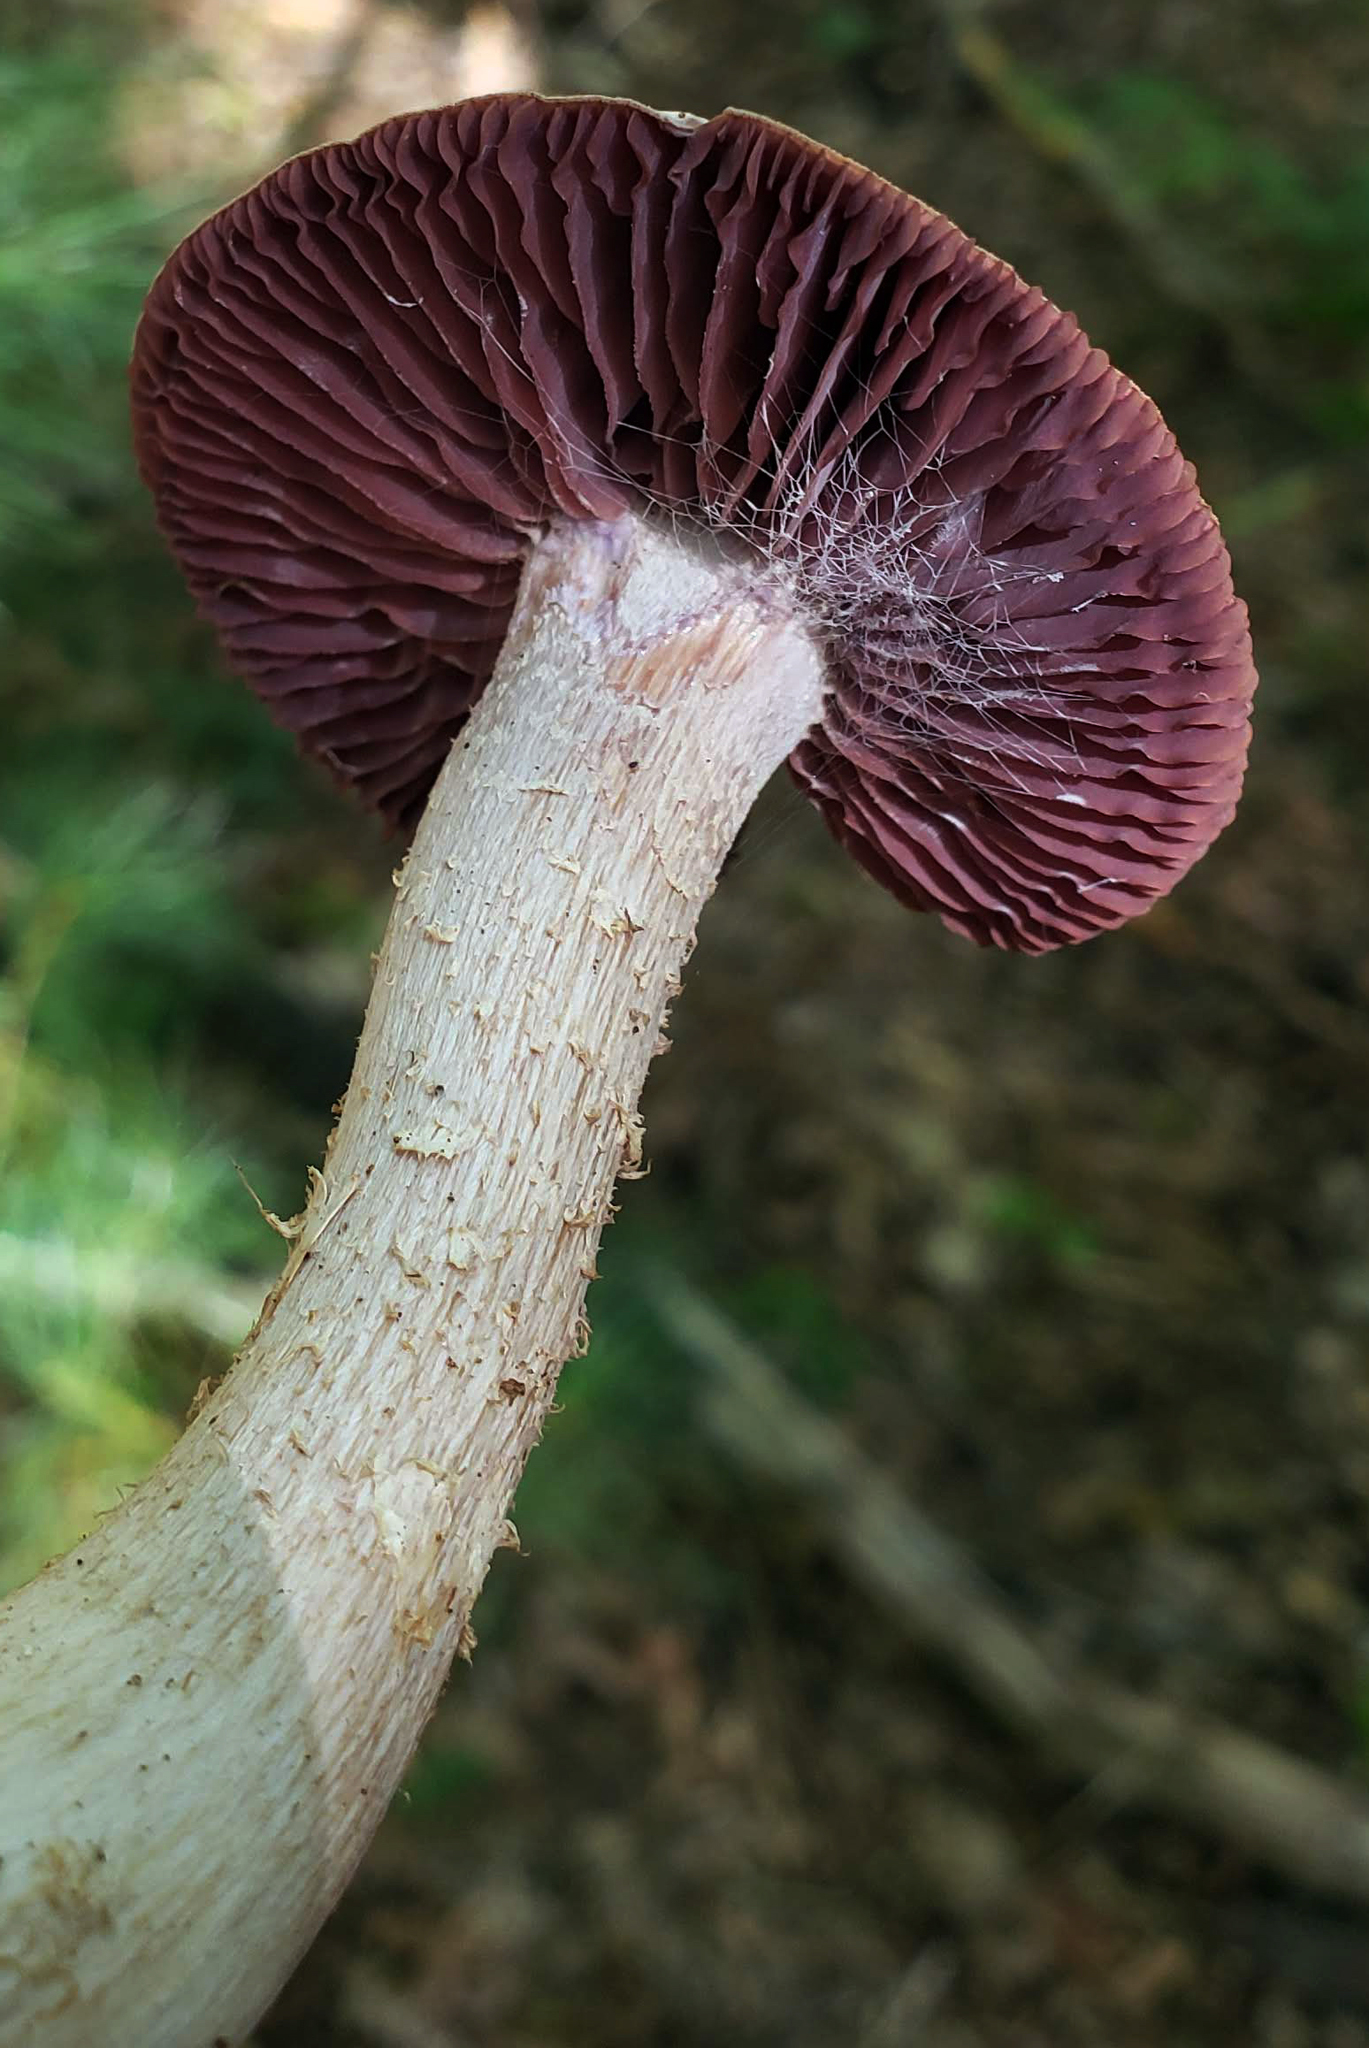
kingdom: Fungi
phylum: Basidiomycota
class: Agaricomycetes
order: Agaricales
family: Hydnangiaceae
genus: Laccaria
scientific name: Laccaria ochropurpurea
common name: Purple laccaria
